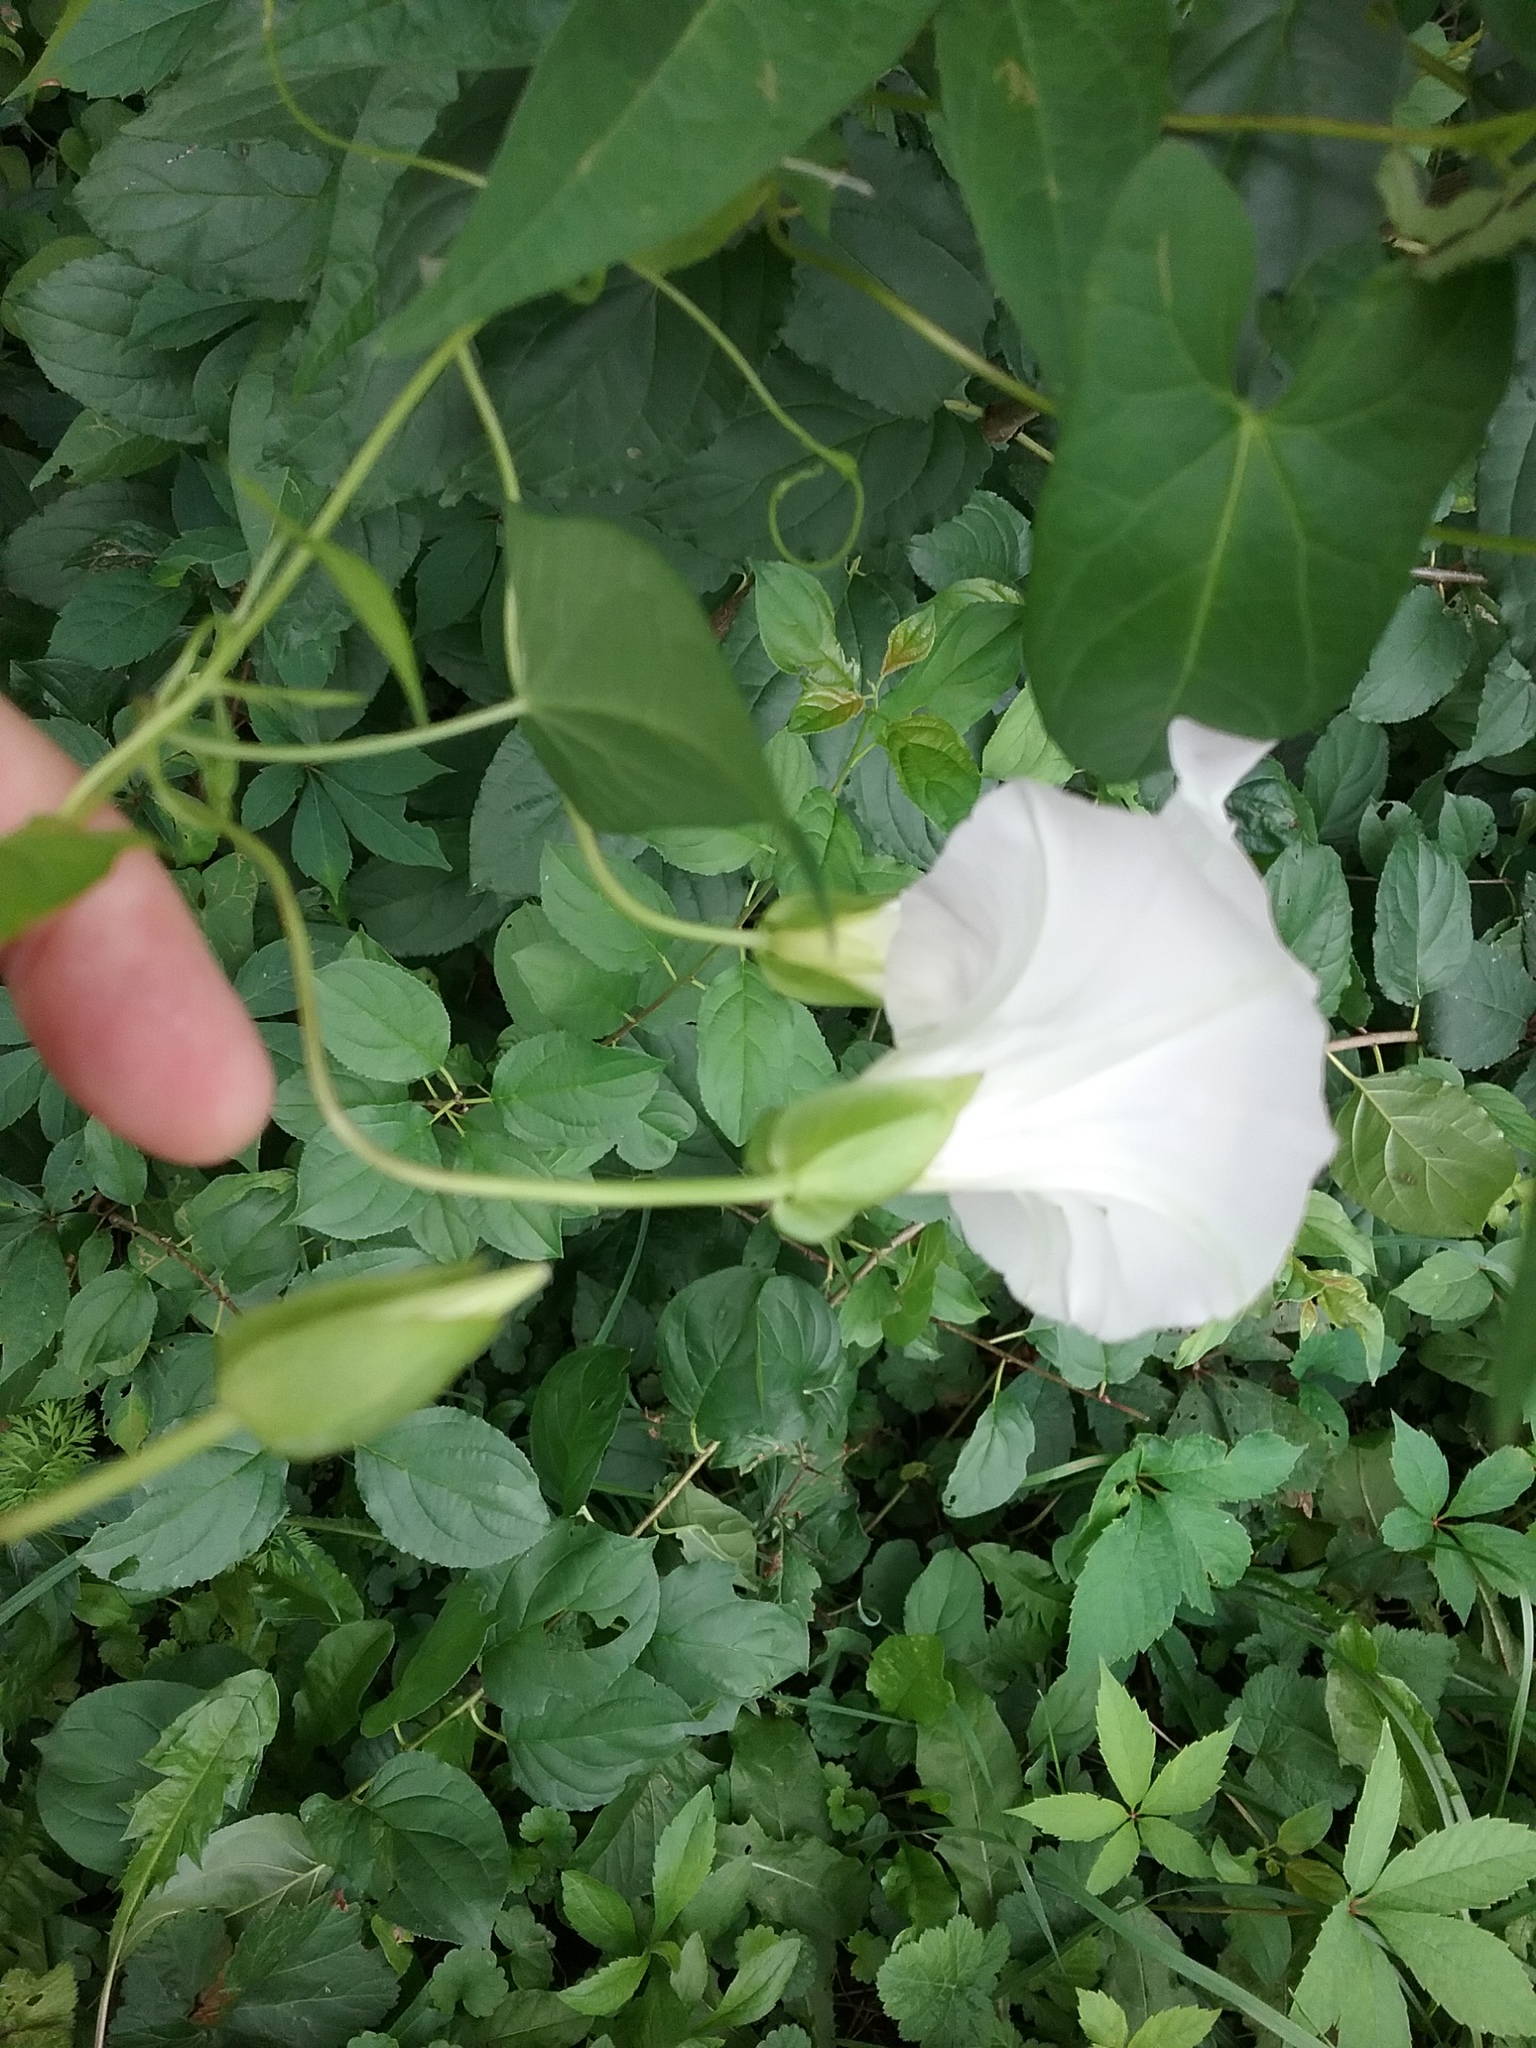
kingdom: Plantae
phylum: Tracheophyta
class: Magnoliopsida
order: Solanales
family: Convolvulaceae
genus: Calystegia
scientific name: Calystegia sepium
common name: Hedge bindweed
